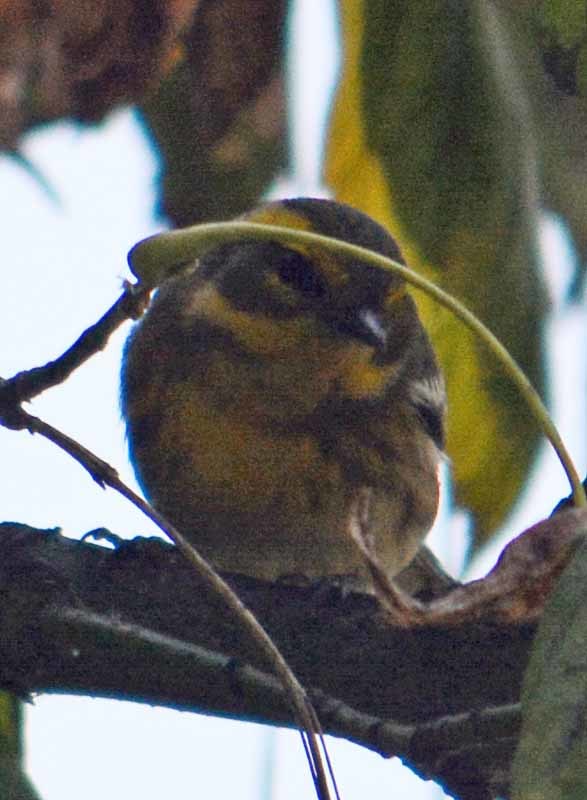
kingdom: Animalia
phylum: Chordata
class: Aves
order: Passeriformes
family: Parulidae
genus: Setophaga
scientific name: Setophaga townsendi
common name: Townsend's warbler
